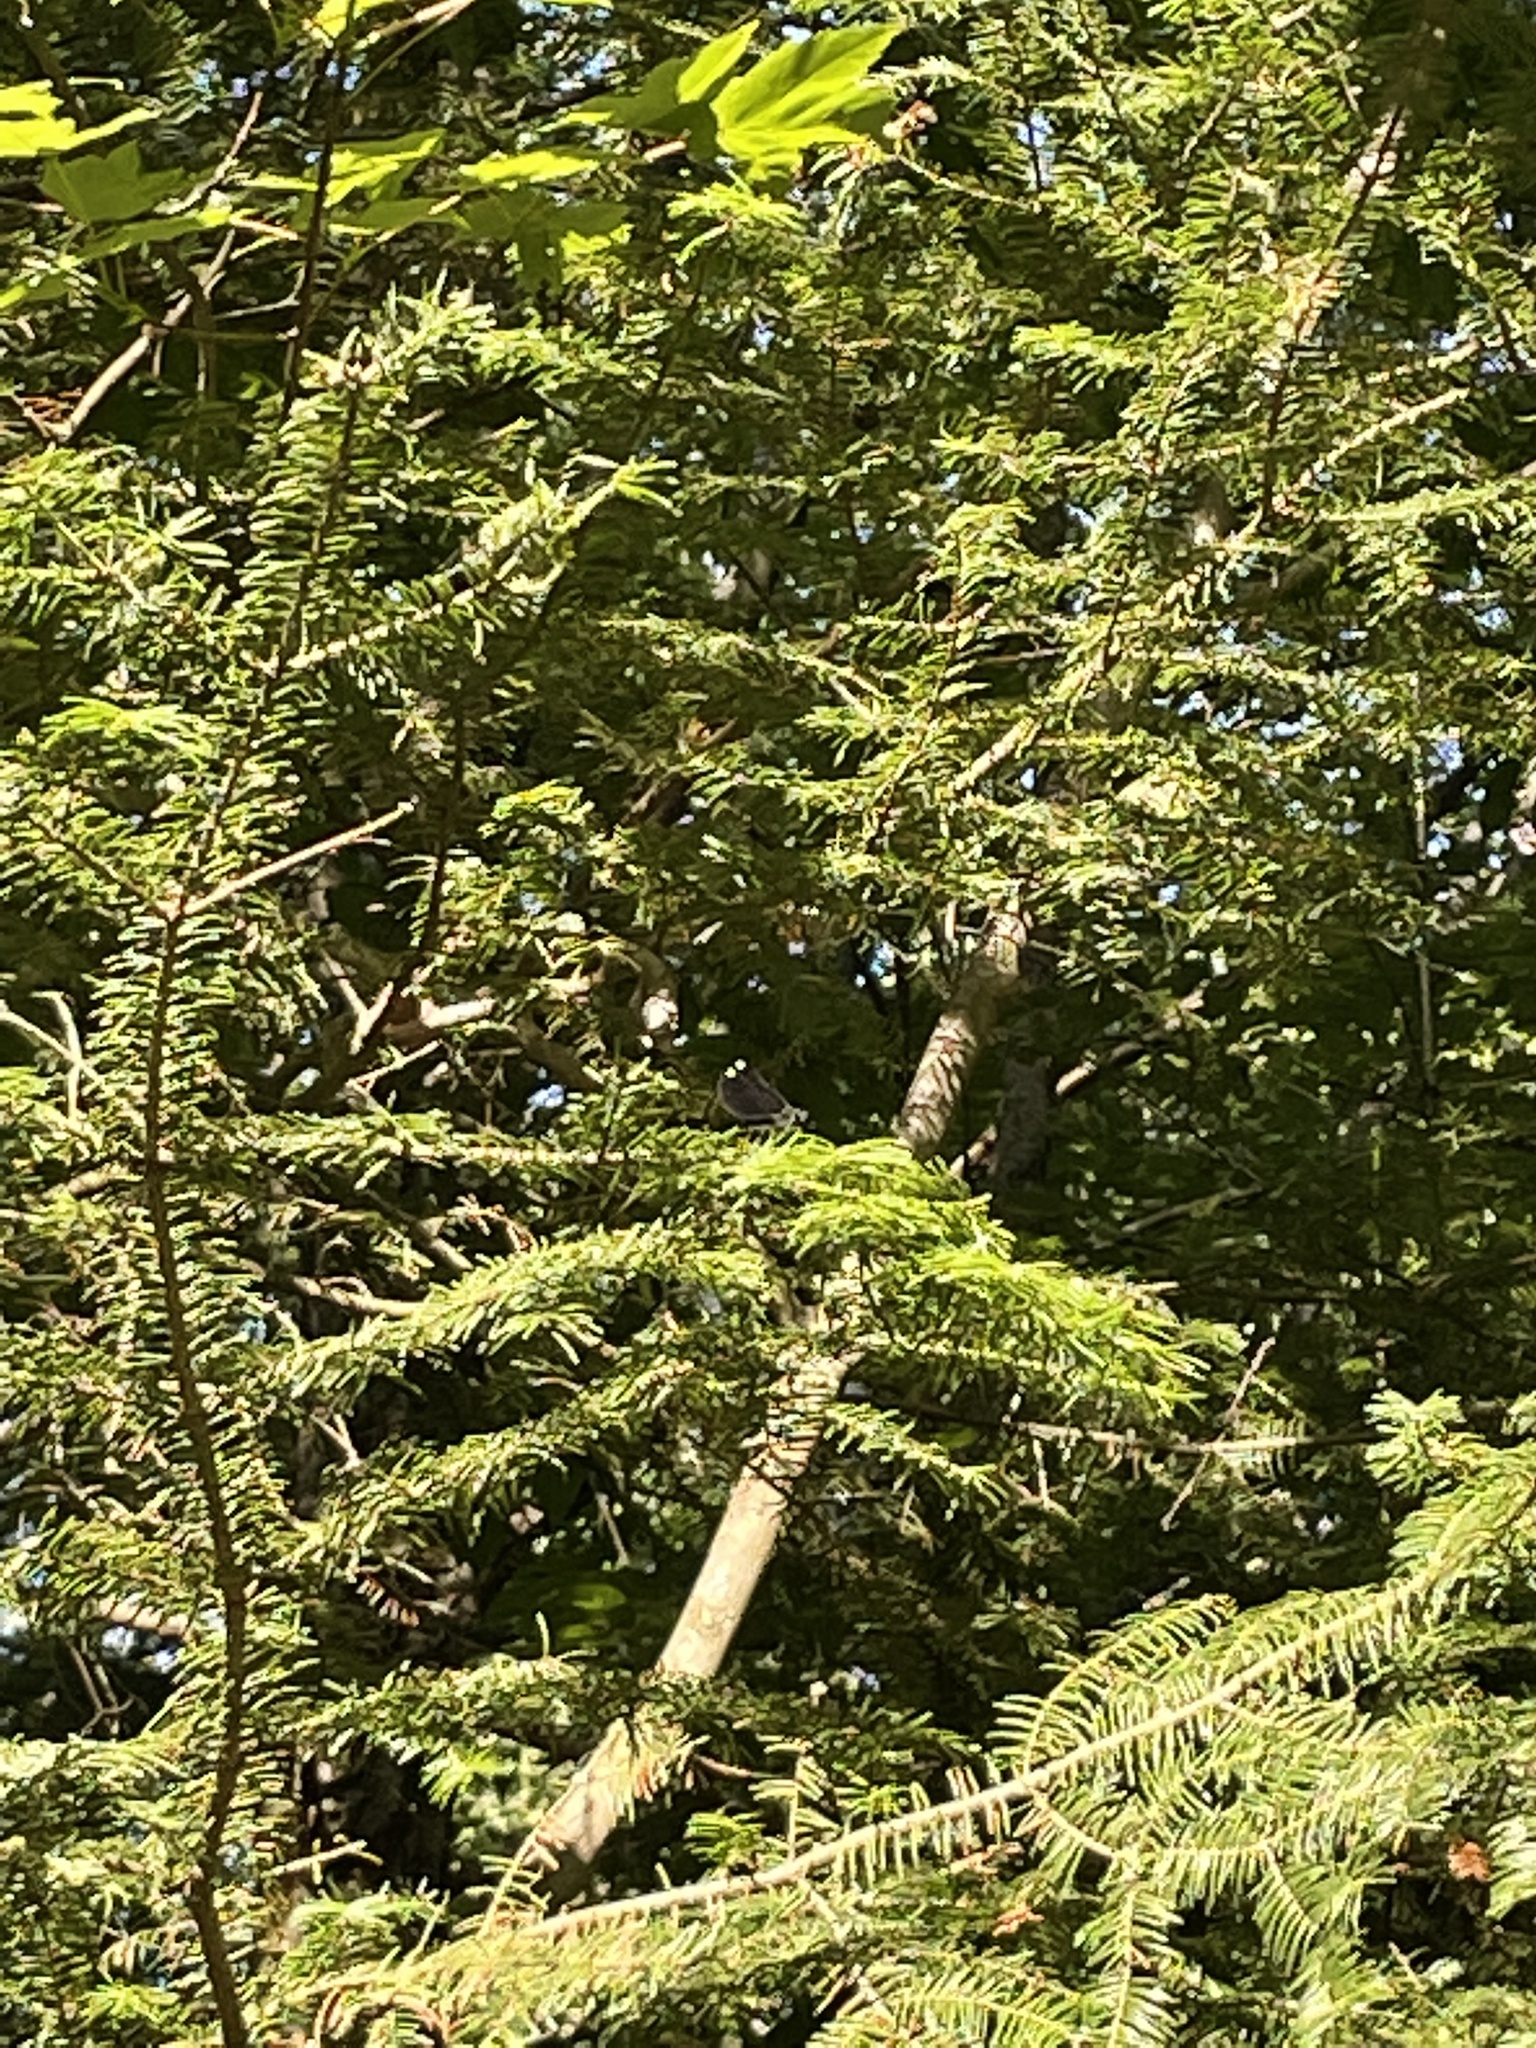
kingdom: Animalia
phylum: Arthropoda
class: Insecta
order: Odonata
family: Calopterygidae
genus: Calopteryx
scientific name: Calopteryx maculata
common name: Ebony jewelwing
